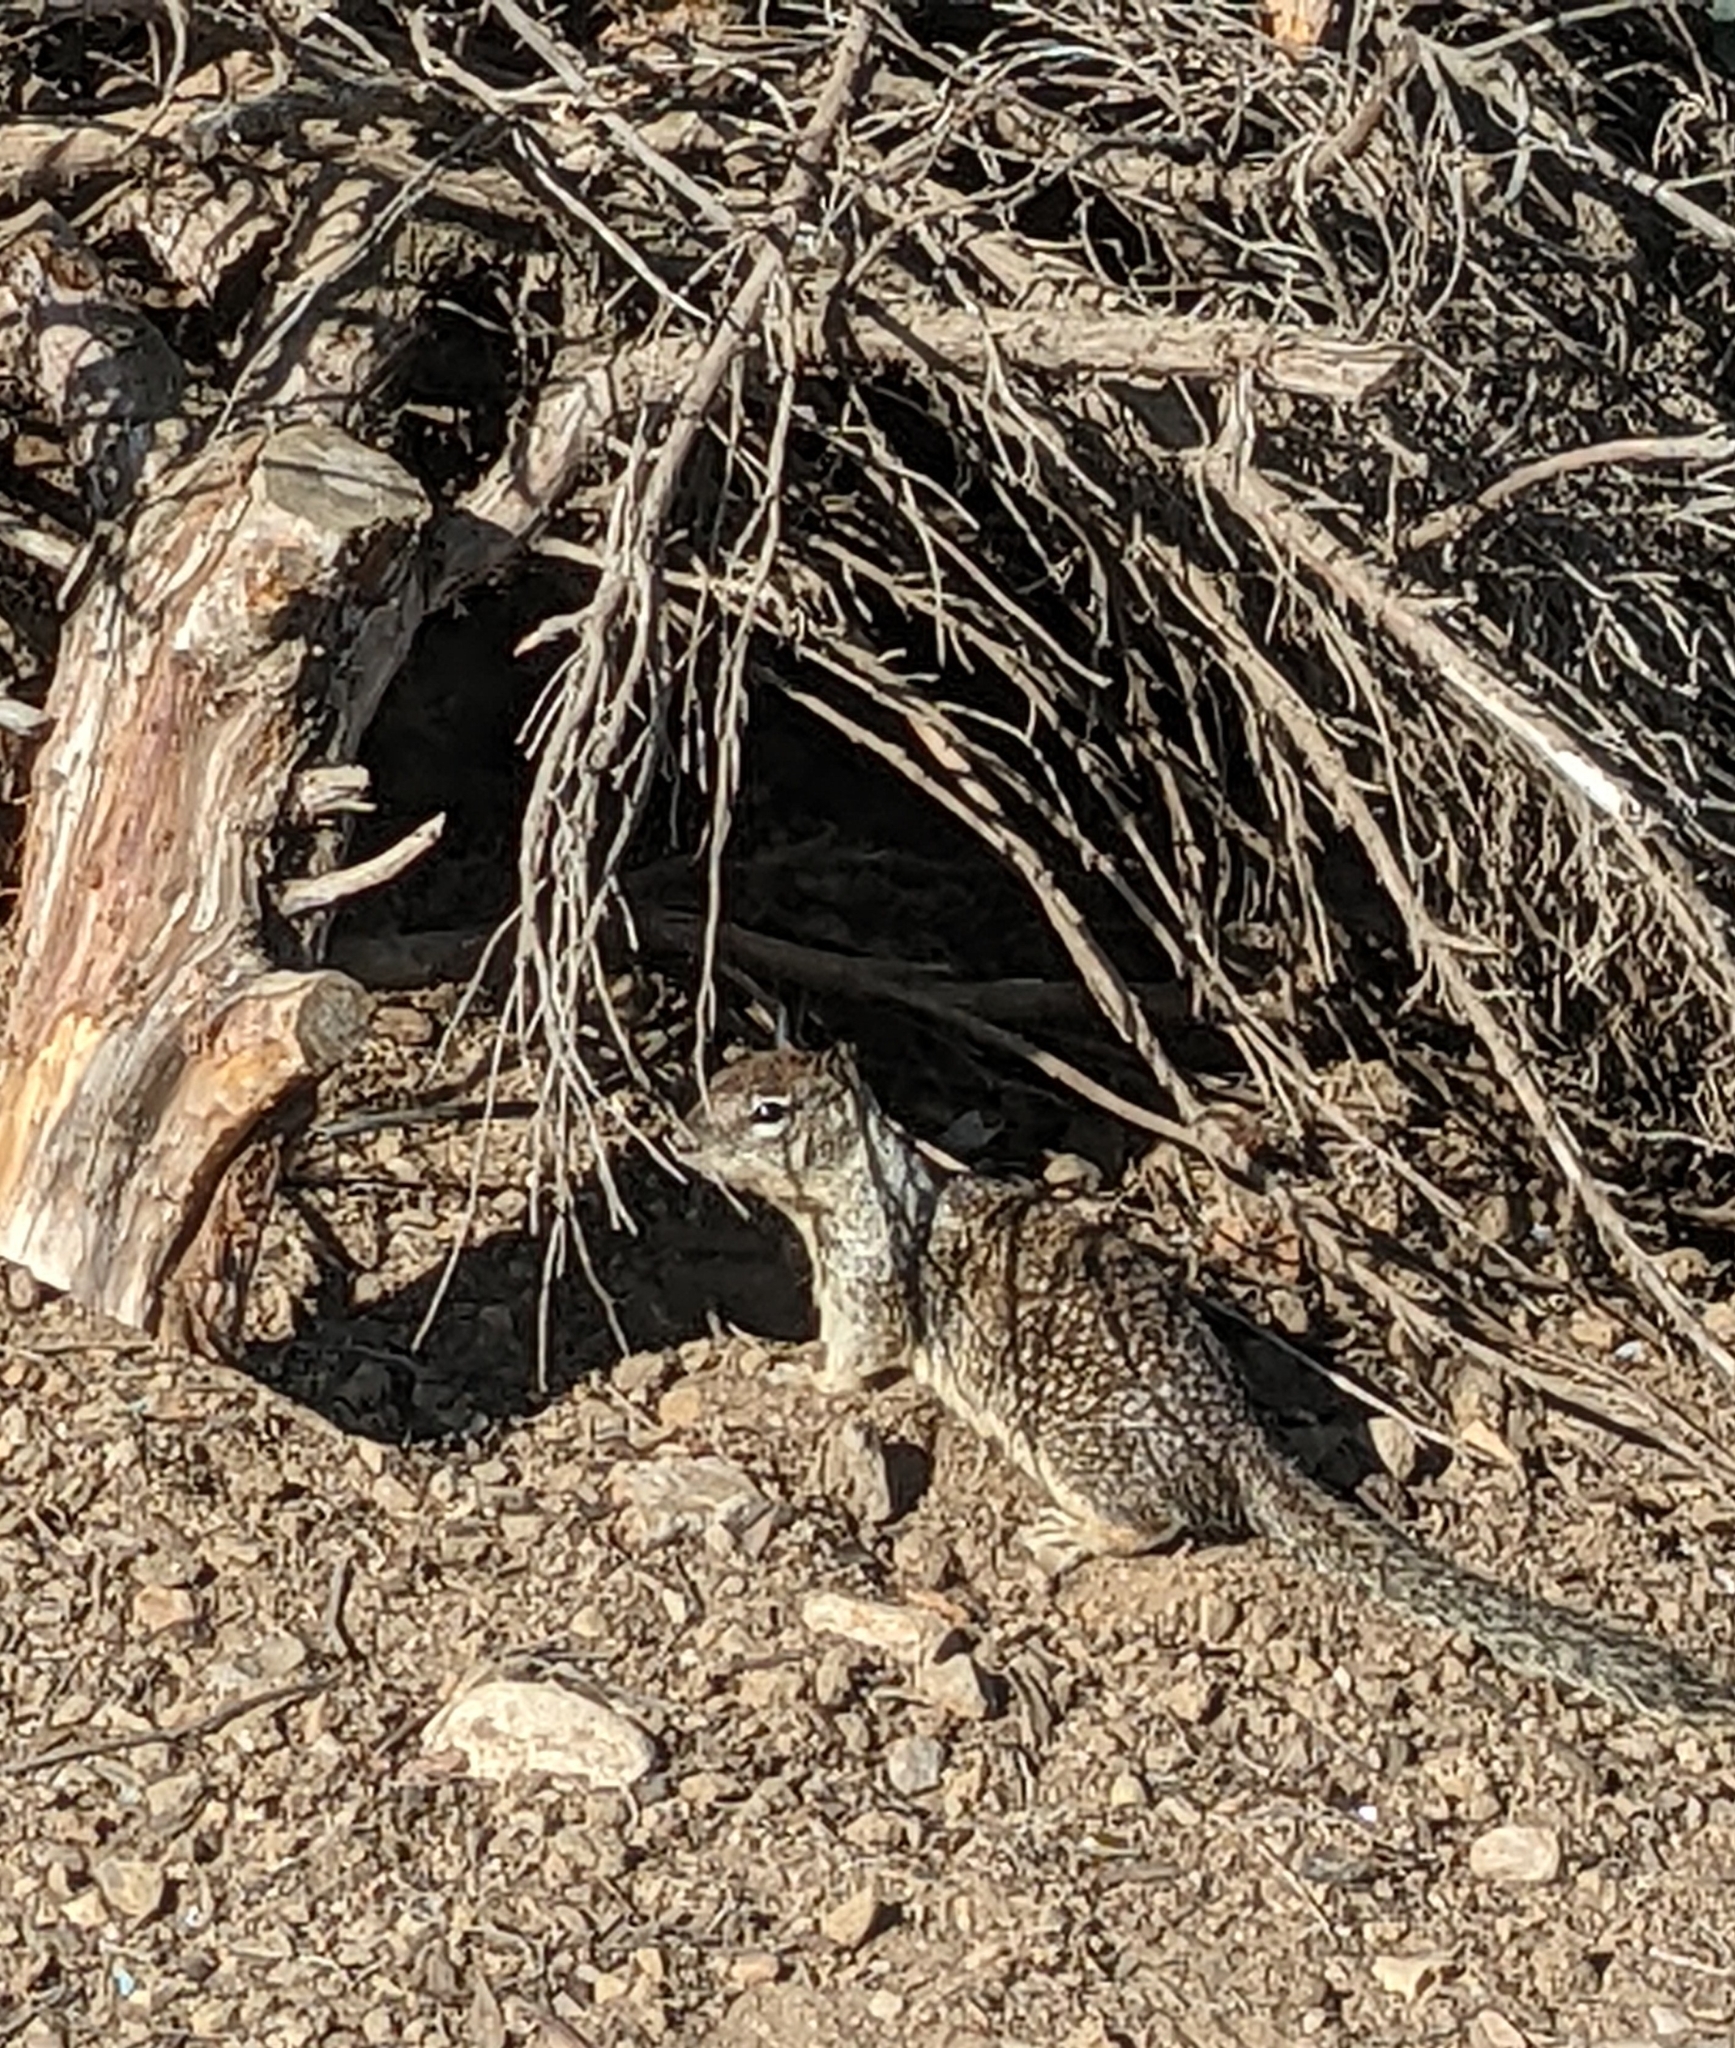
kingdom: Animalia
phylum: Chordata
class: Mammalia
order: Rodentia
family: Sciuridae
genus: Otospermophilus
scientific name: Otospermophilus beecheyi
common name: California ground squirrel
